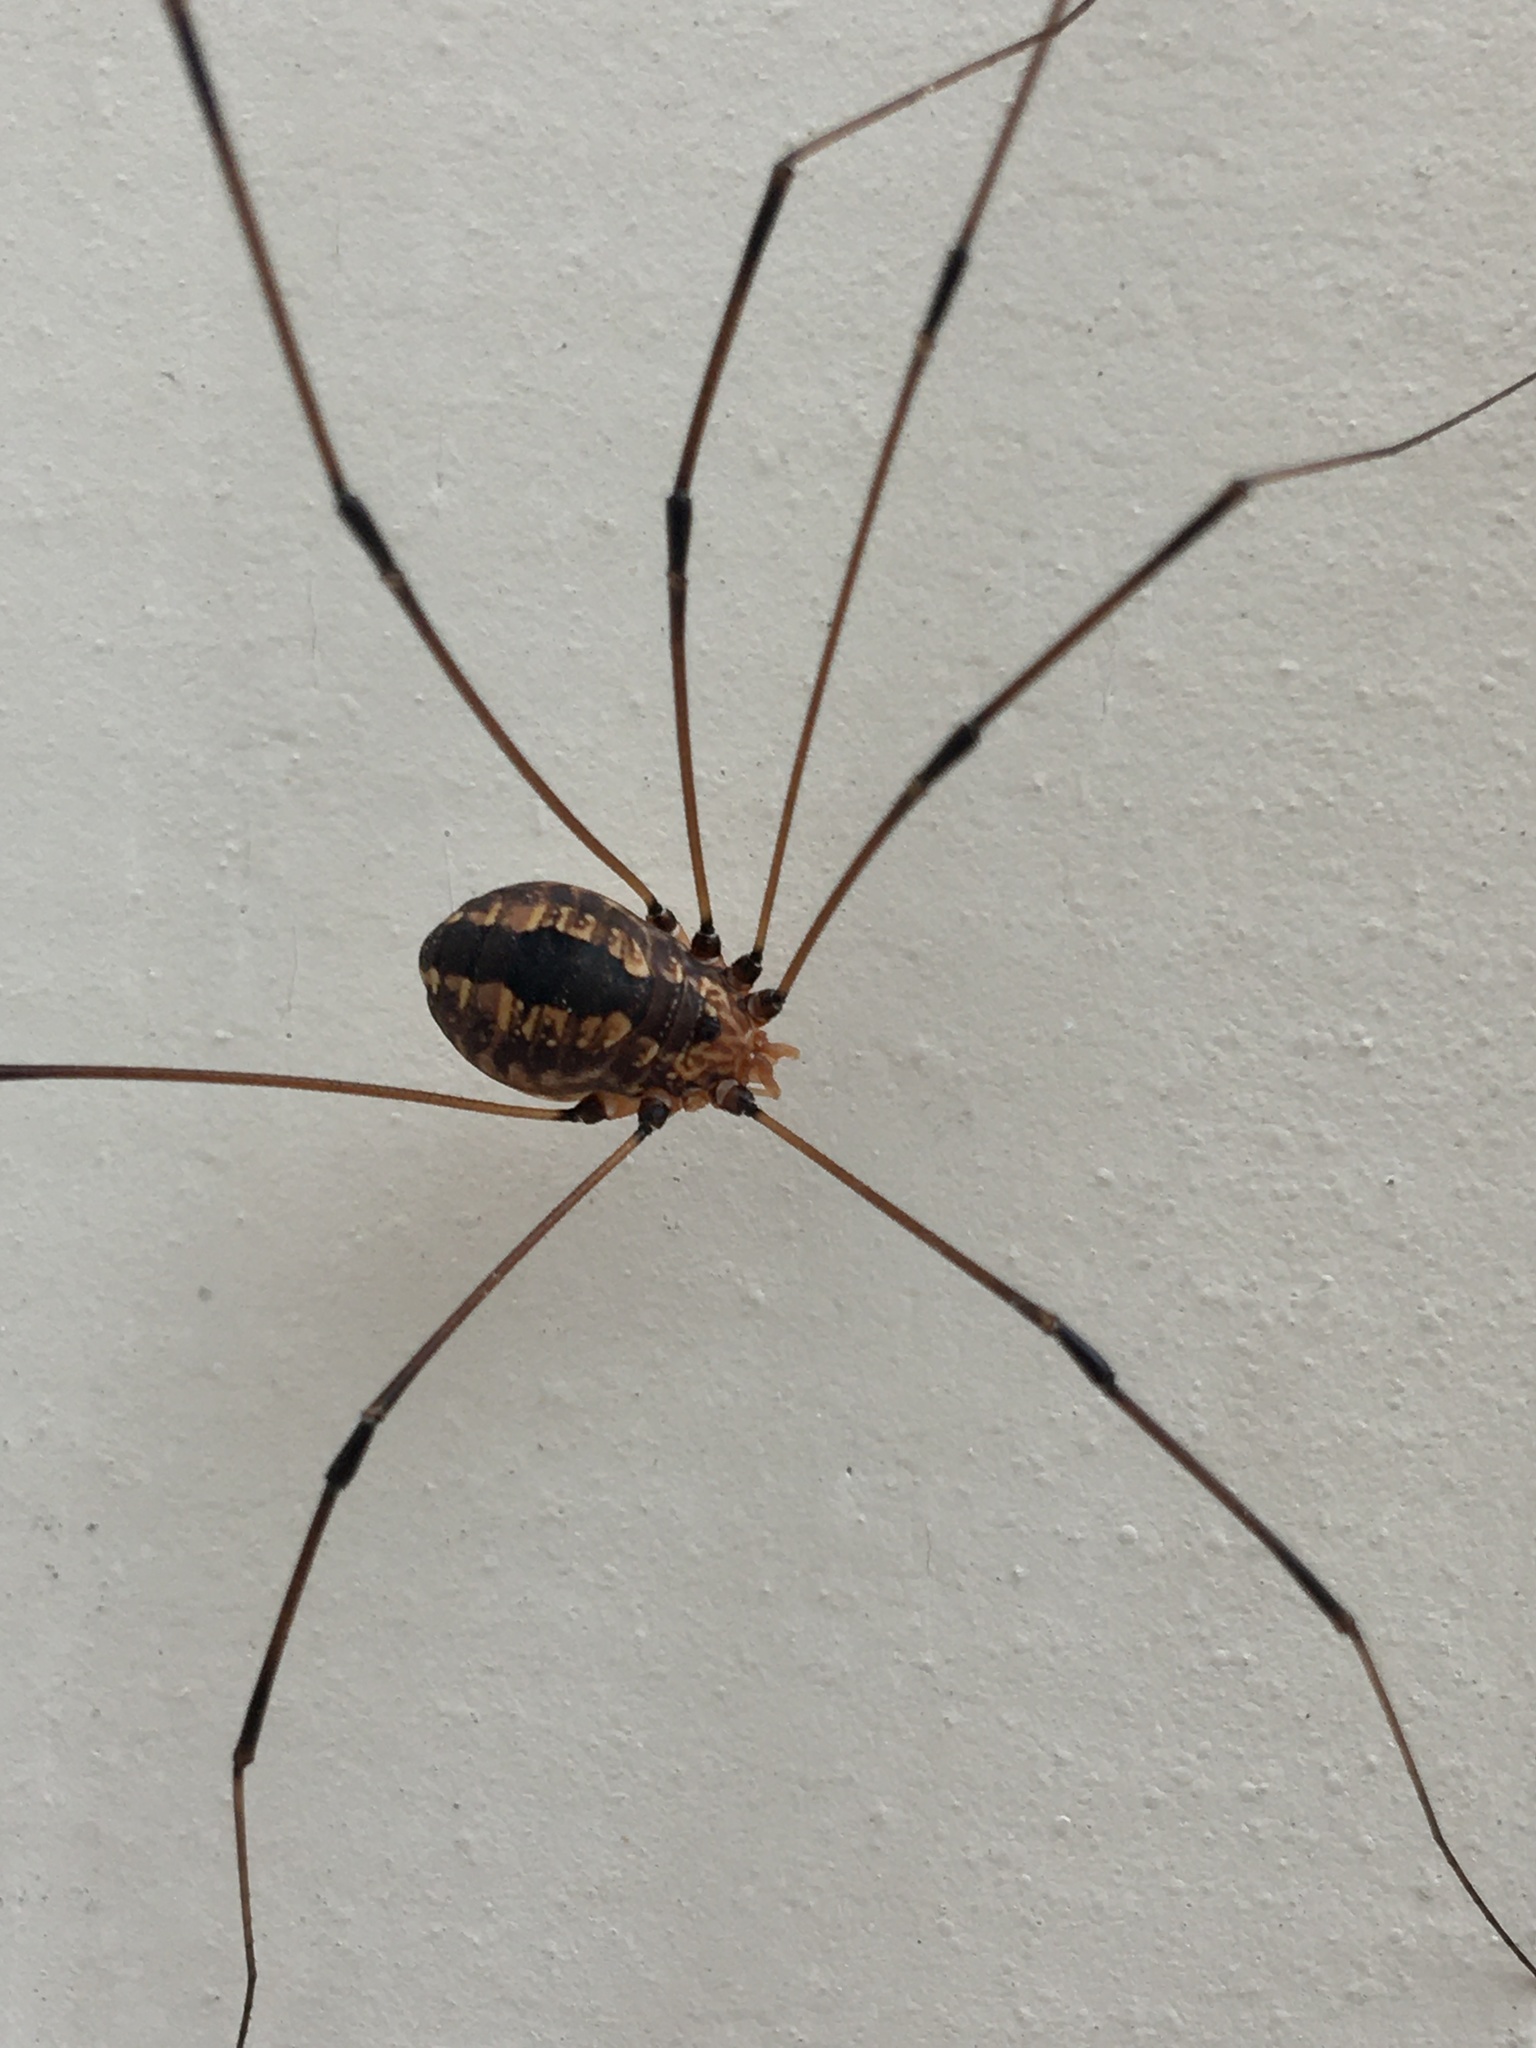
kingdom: Animalia
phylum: Arthropoda
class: Arachnida
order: Opiliones
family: Sclerosomatidae
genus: Leiobunum
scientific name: Leiobunum vittatum
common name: Eastern harvestman
